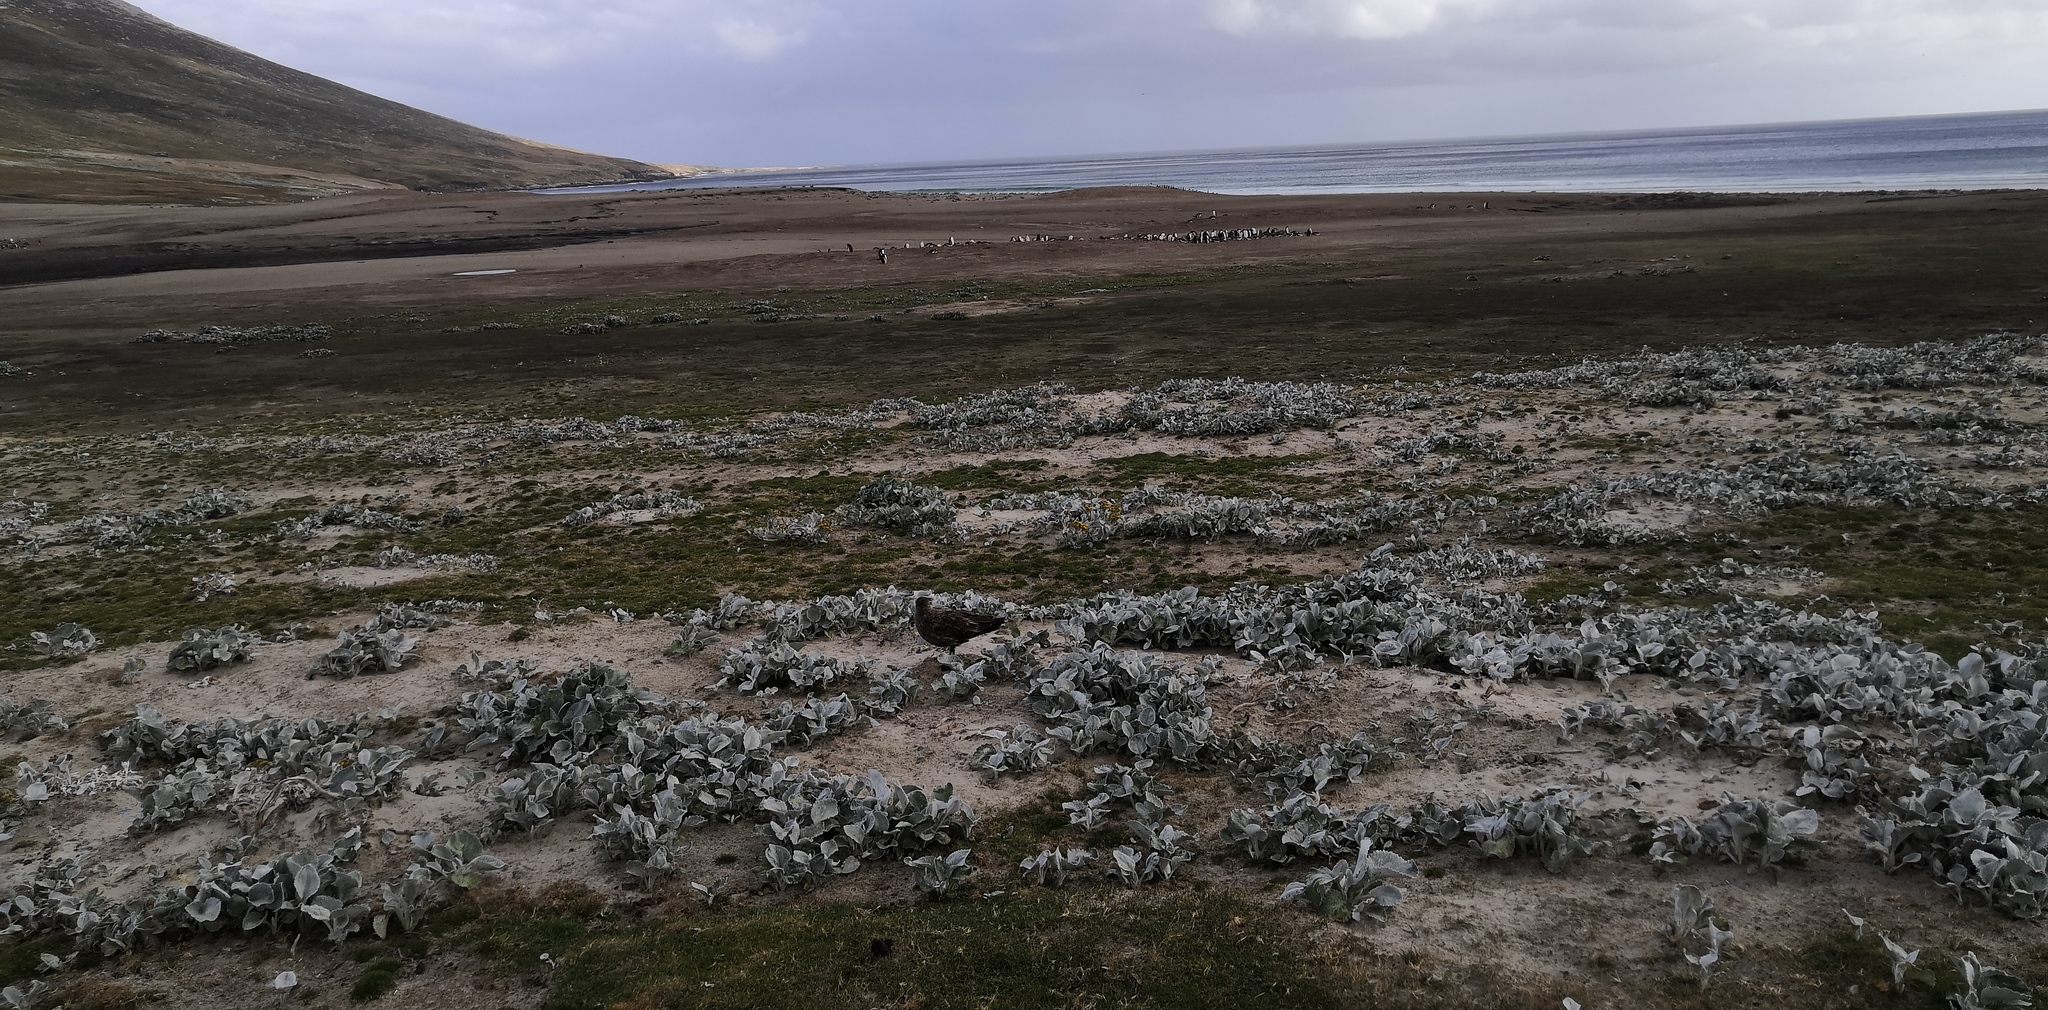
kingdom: Animalia
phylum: Chordata
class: Aves
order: Charadriiformes
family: Stercorariidae
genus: Stercorarius
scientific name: Stercorarius antarcticus
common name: Brown skua
